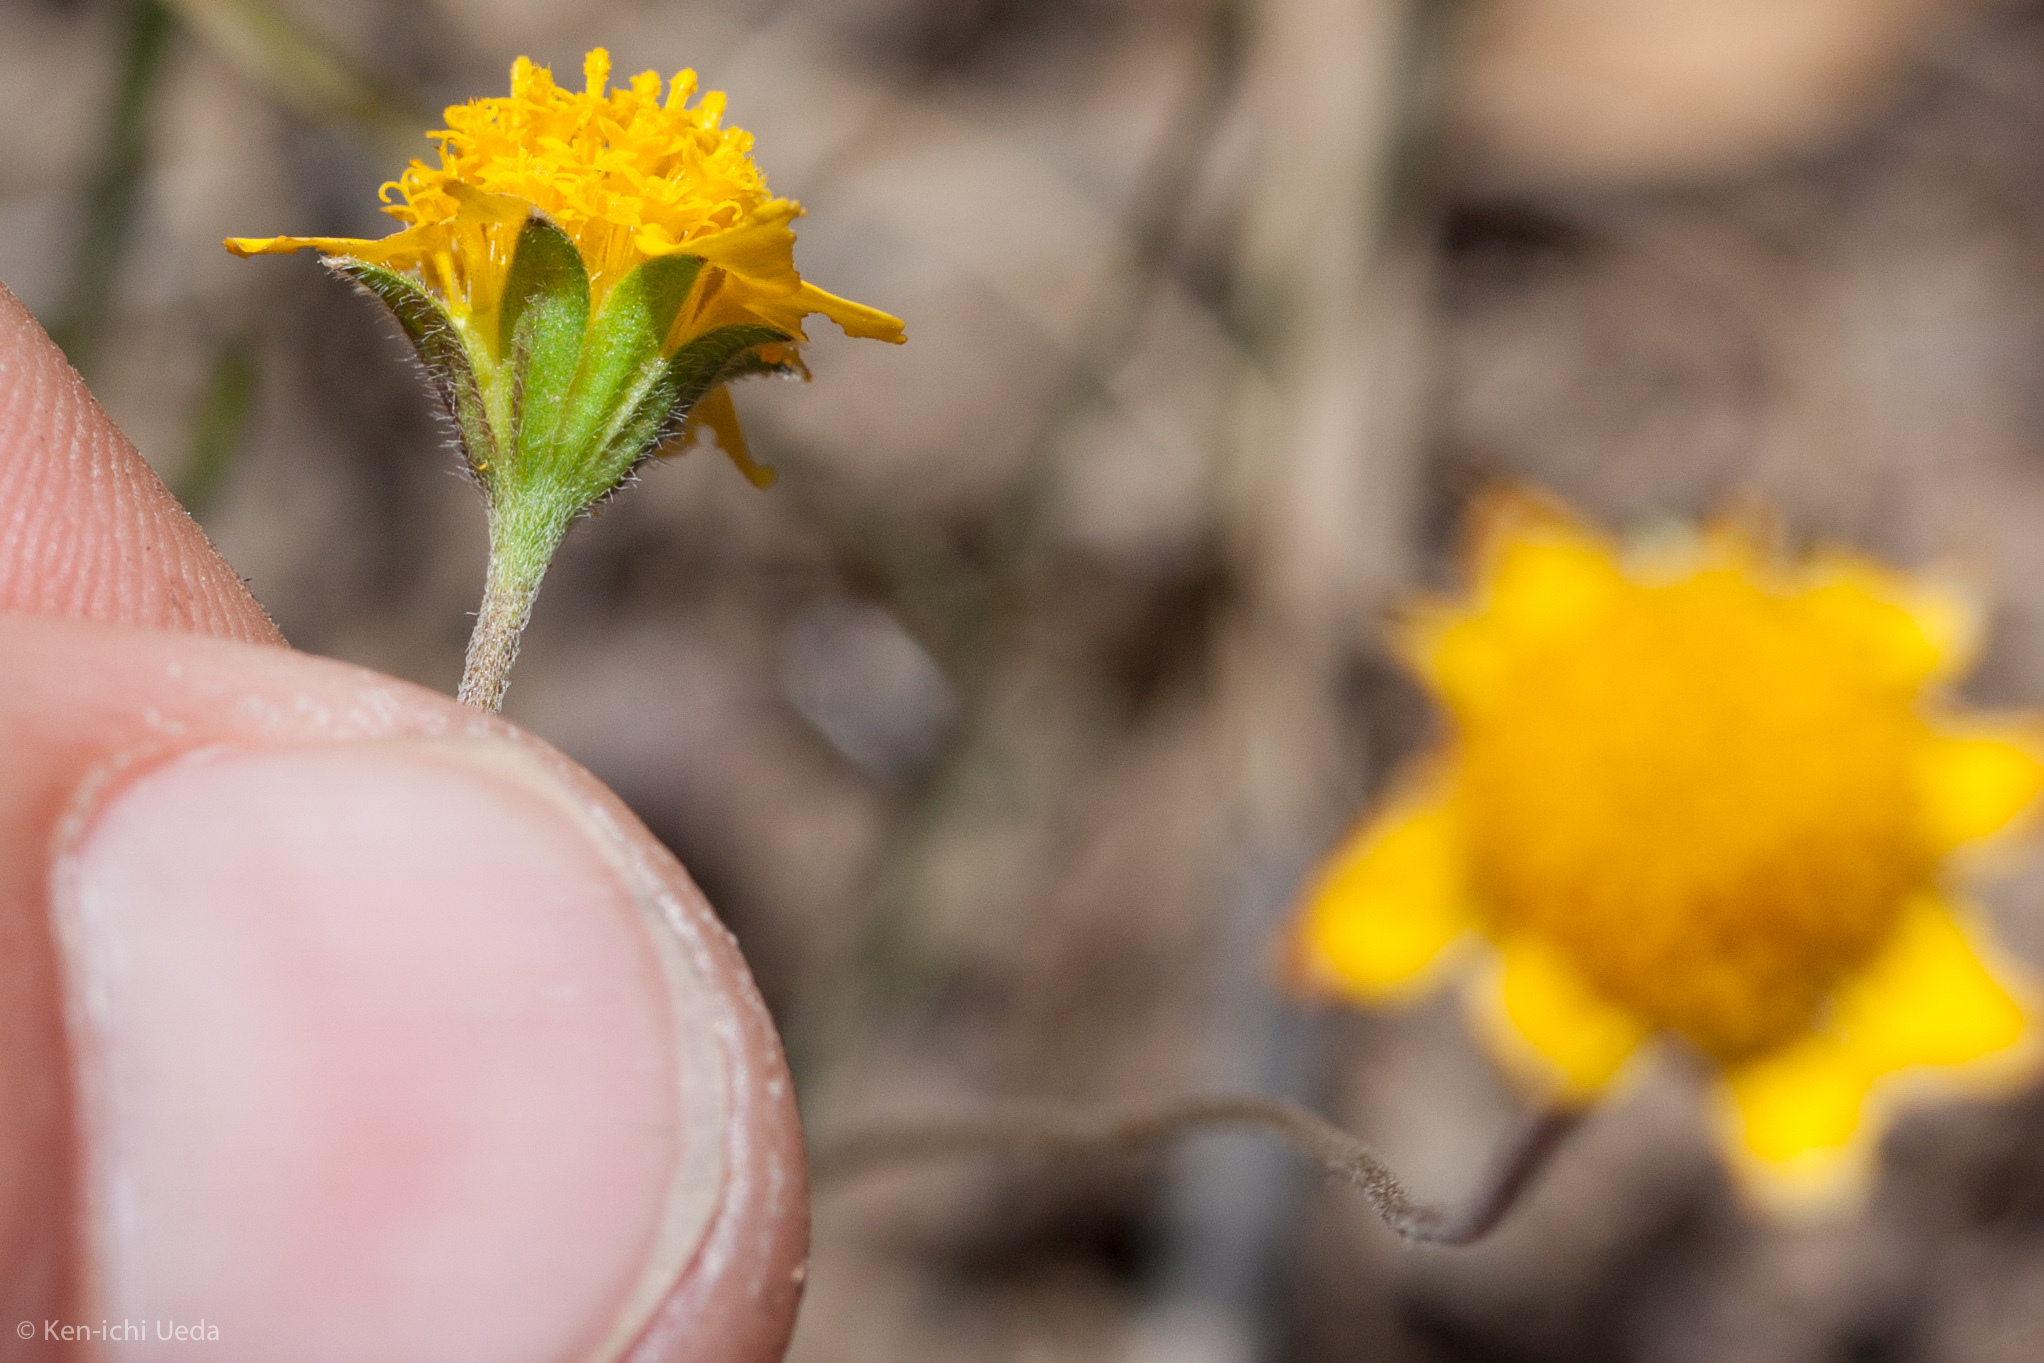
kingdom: Plantae
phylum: Tracheophyta
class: Magnoliopsida
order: Asterales
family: Asteraceae
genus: Lasthenia
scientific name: Lasthenia californica
